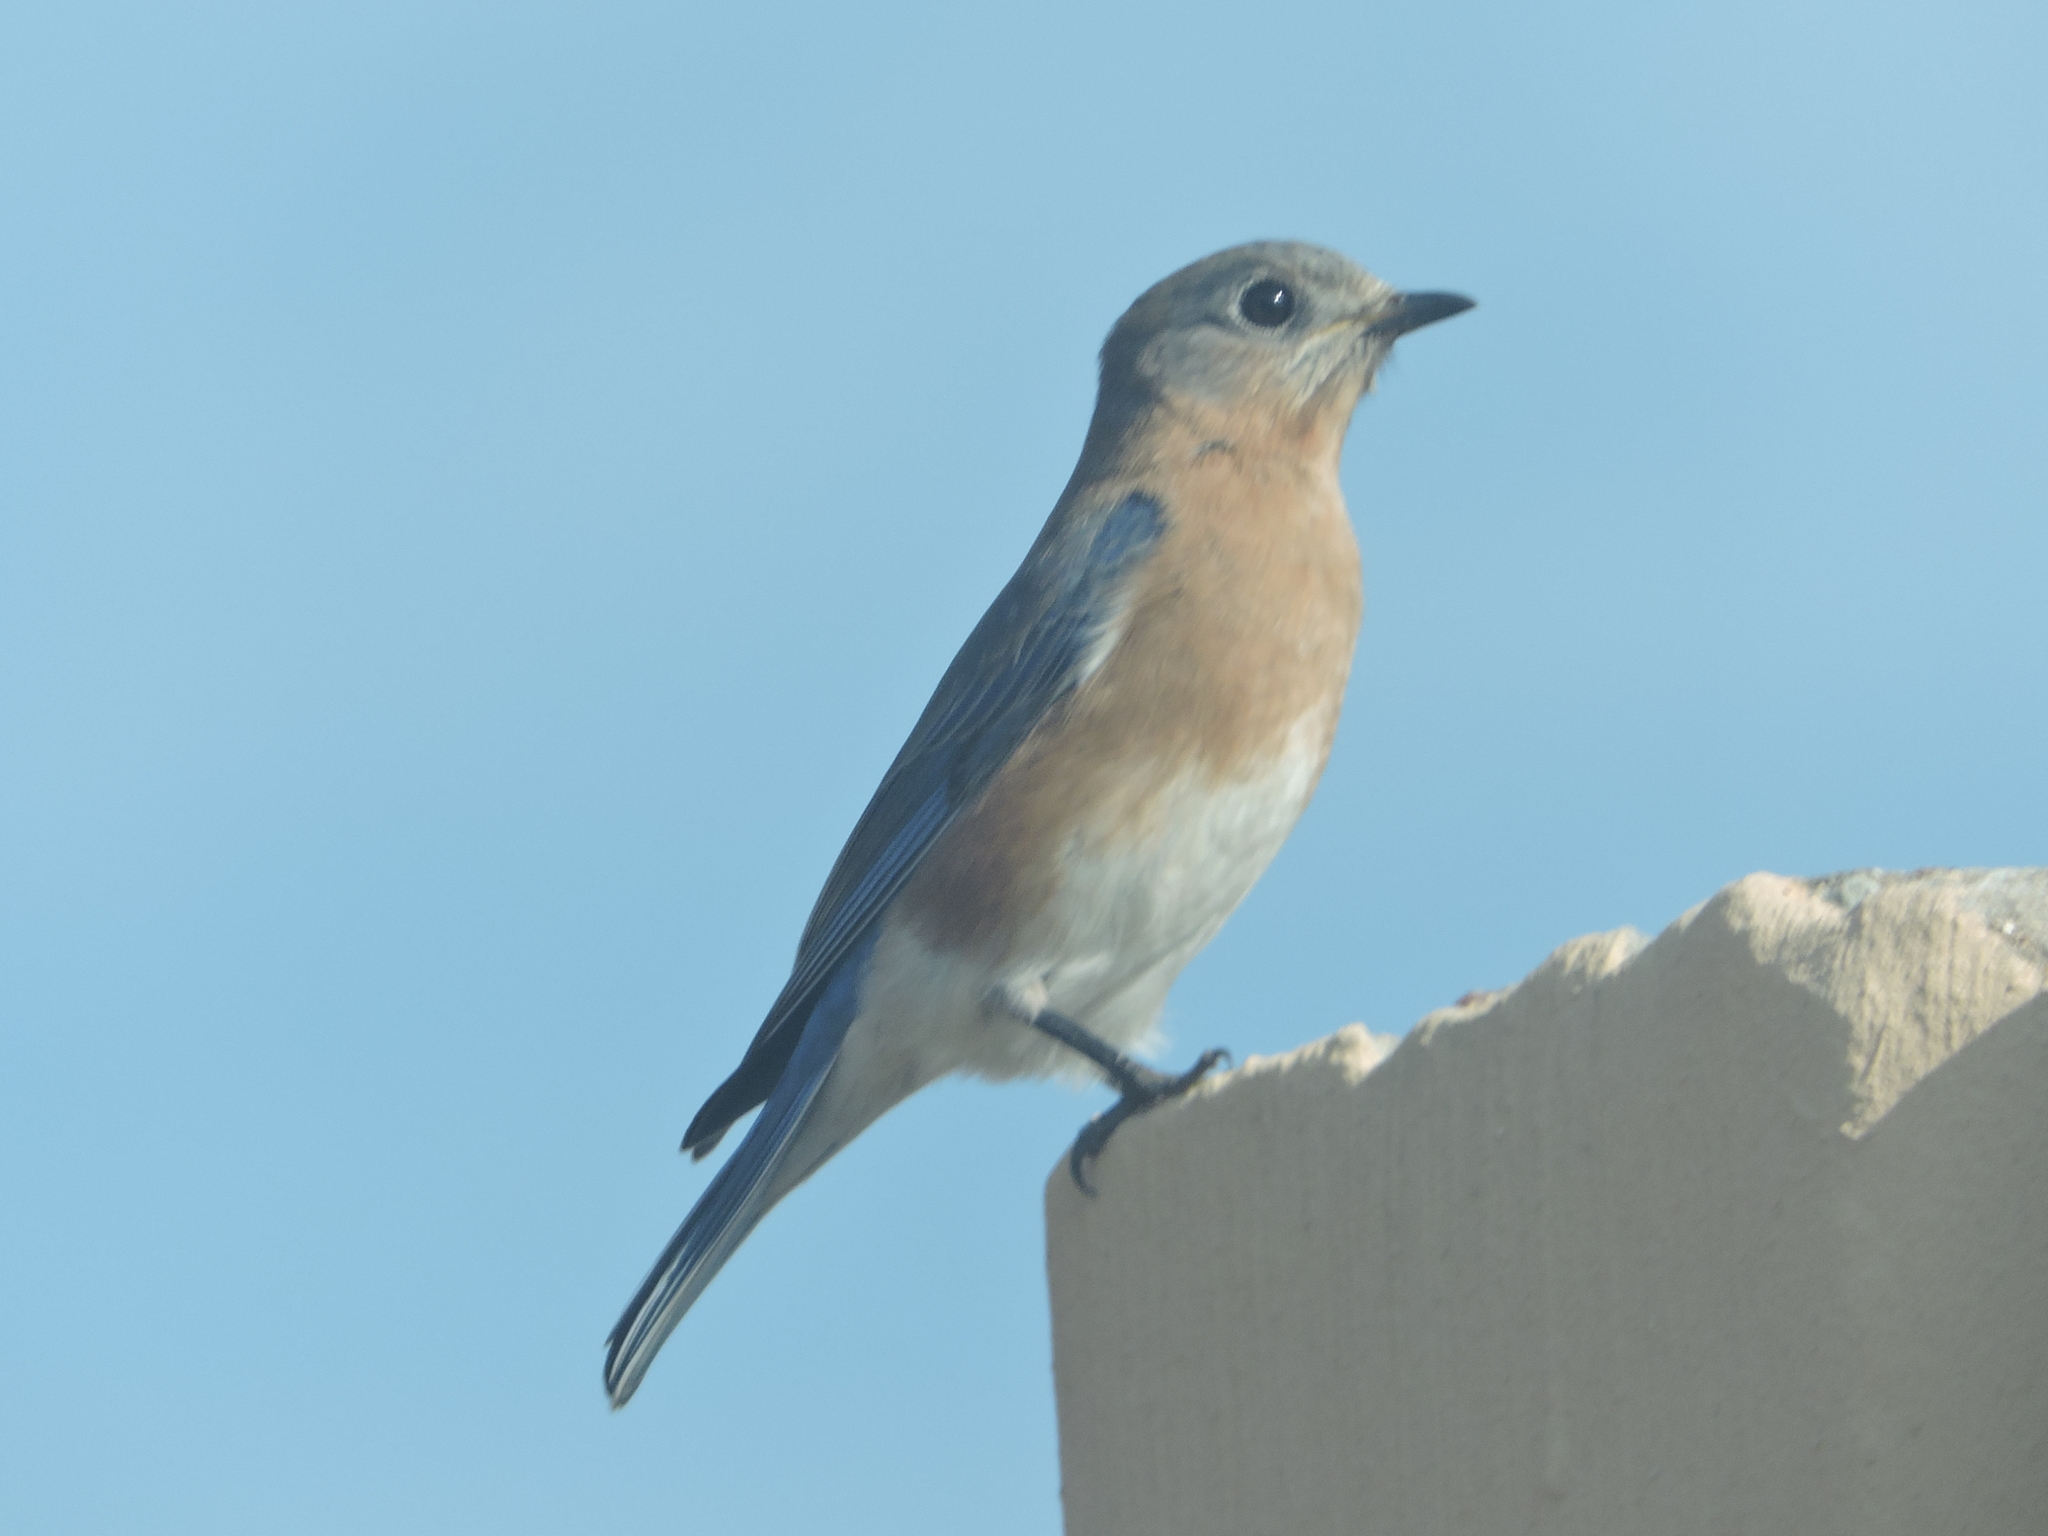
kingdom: Animalia
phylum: Chordata
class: Aves
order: Passeriformes
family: Turdidae
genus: Sialia
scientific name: Sialia sialis
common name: Eastern bluebird
